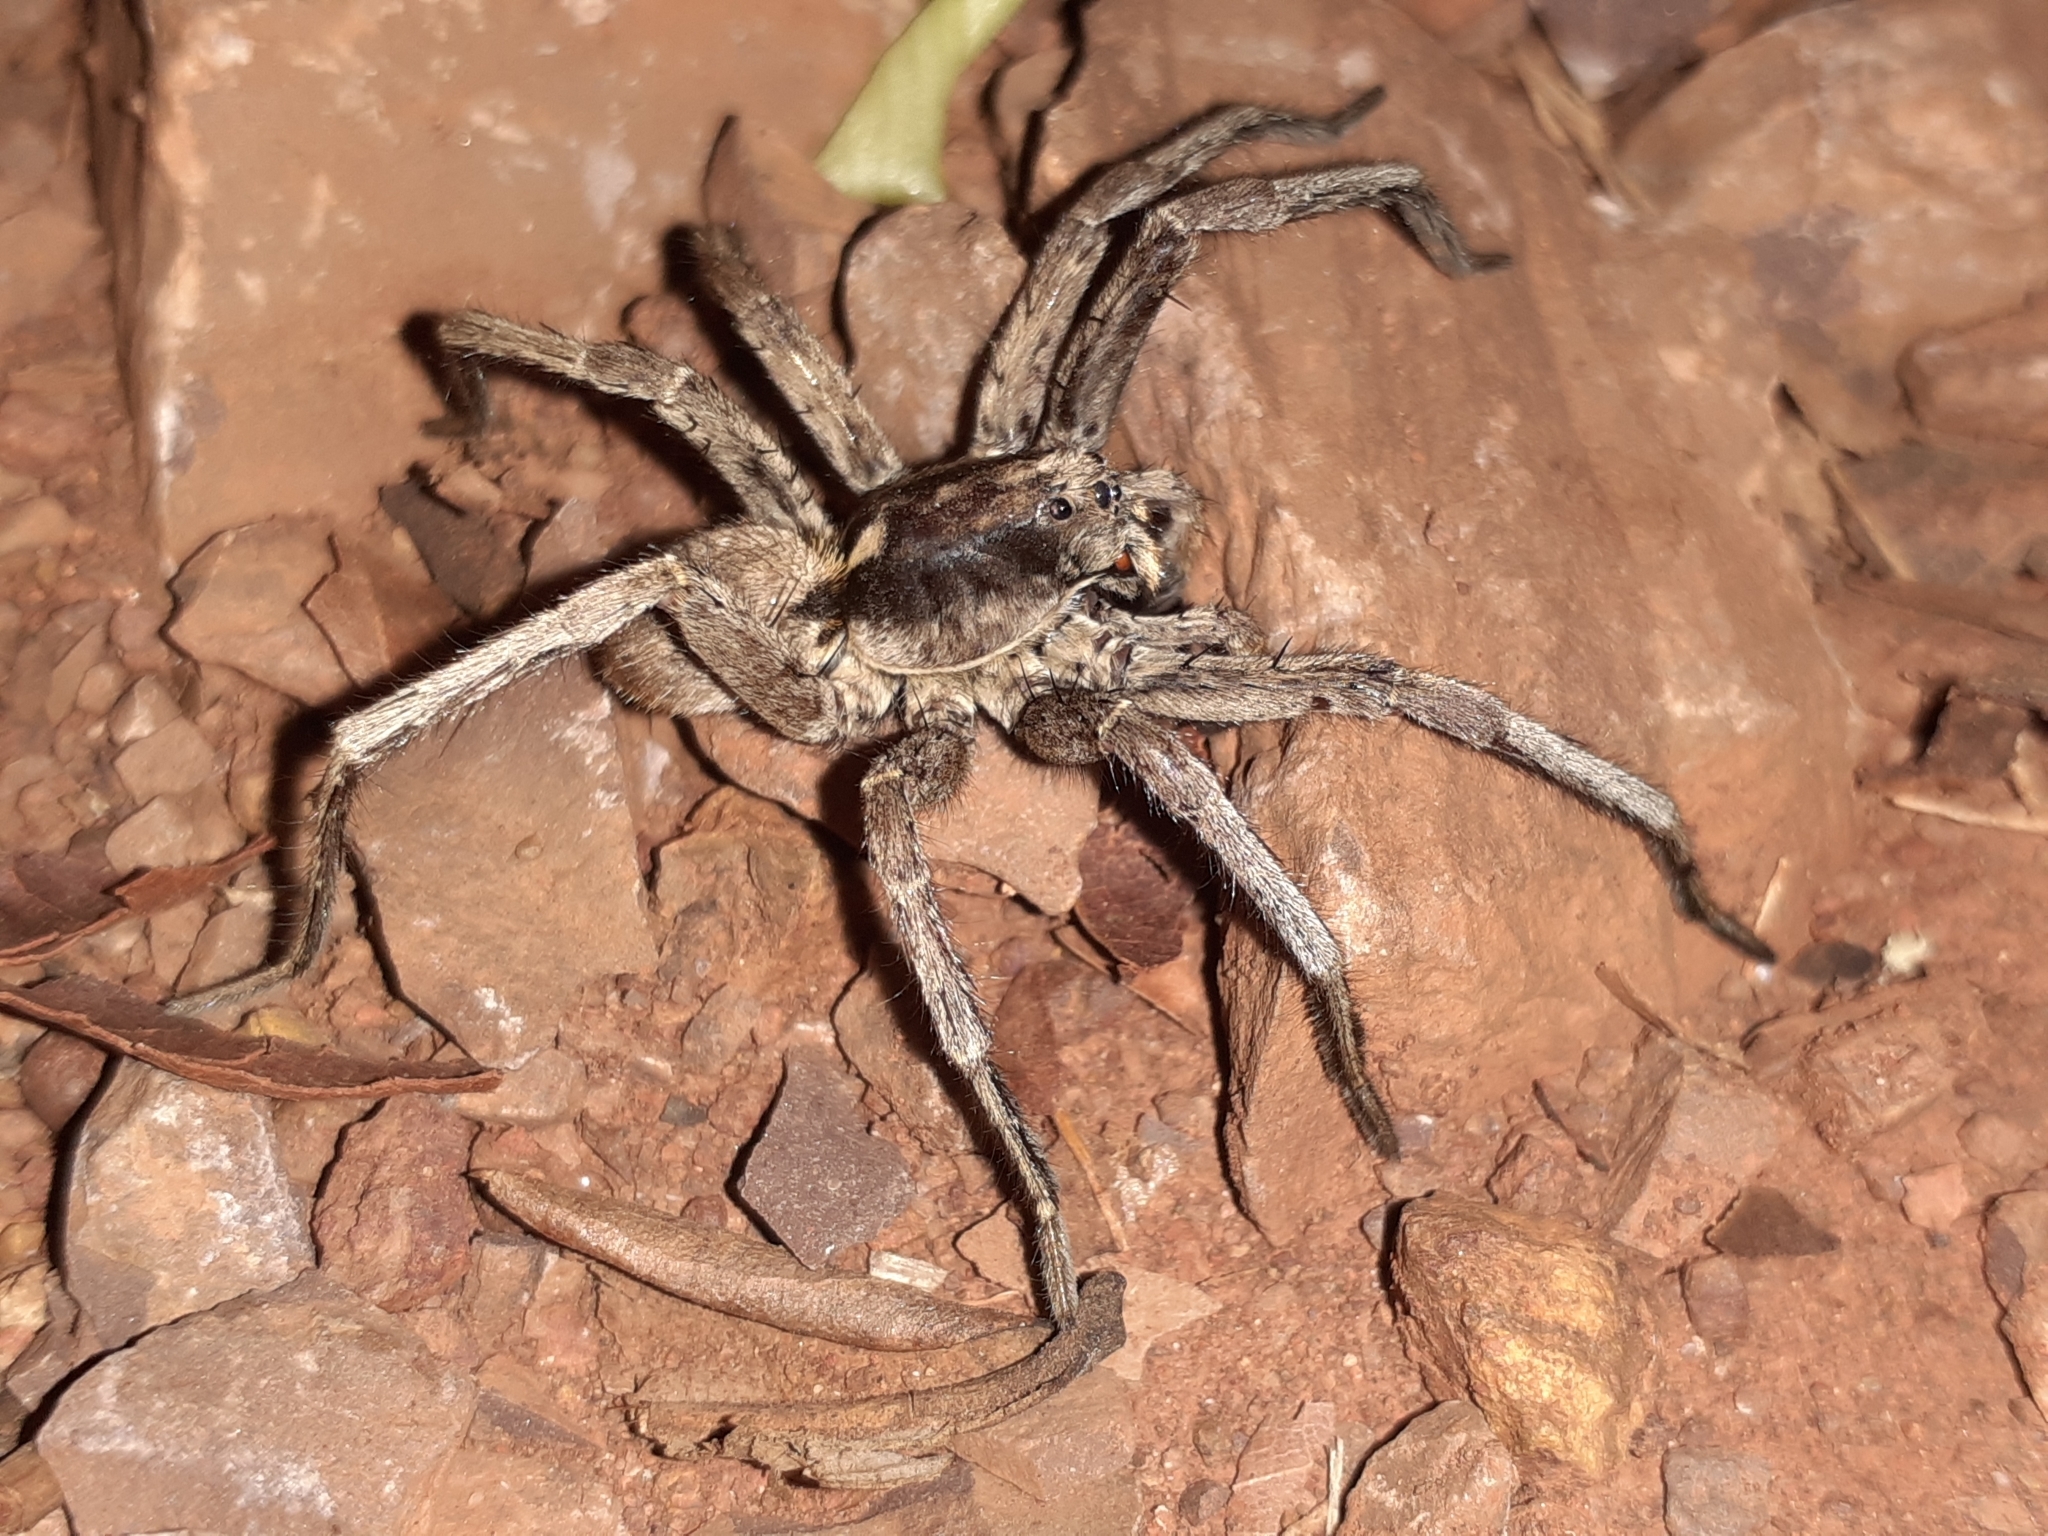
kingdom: Animalia
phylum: Arthropoda
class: Arachnida
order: Araneae
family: Sparassidae
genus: Heteropoda
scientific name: Heteropoda venatoria
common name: Huntsman spider
